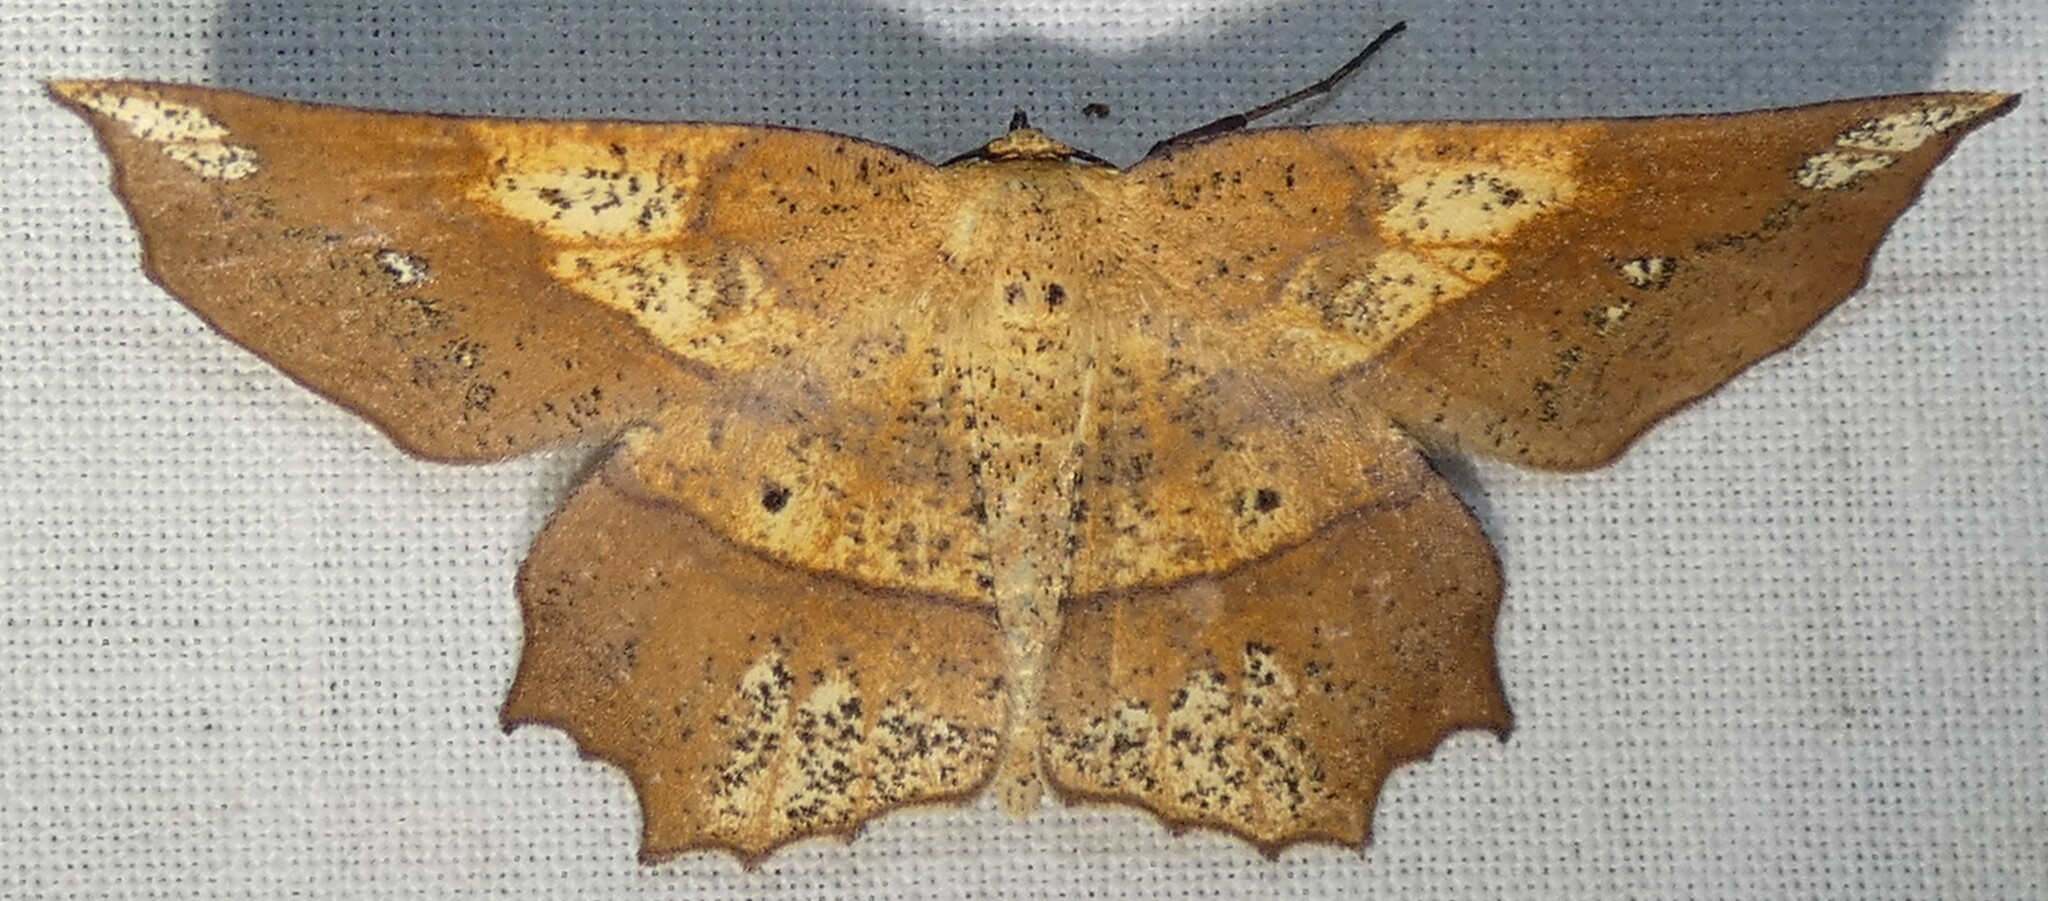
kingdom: Animalia
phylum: Arthropoda
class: Insecta
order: Lepidoptera
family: Geometridae
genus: Euchlaena
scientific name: Euchlaena amoenaria
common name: Deep yellow euchlaena
